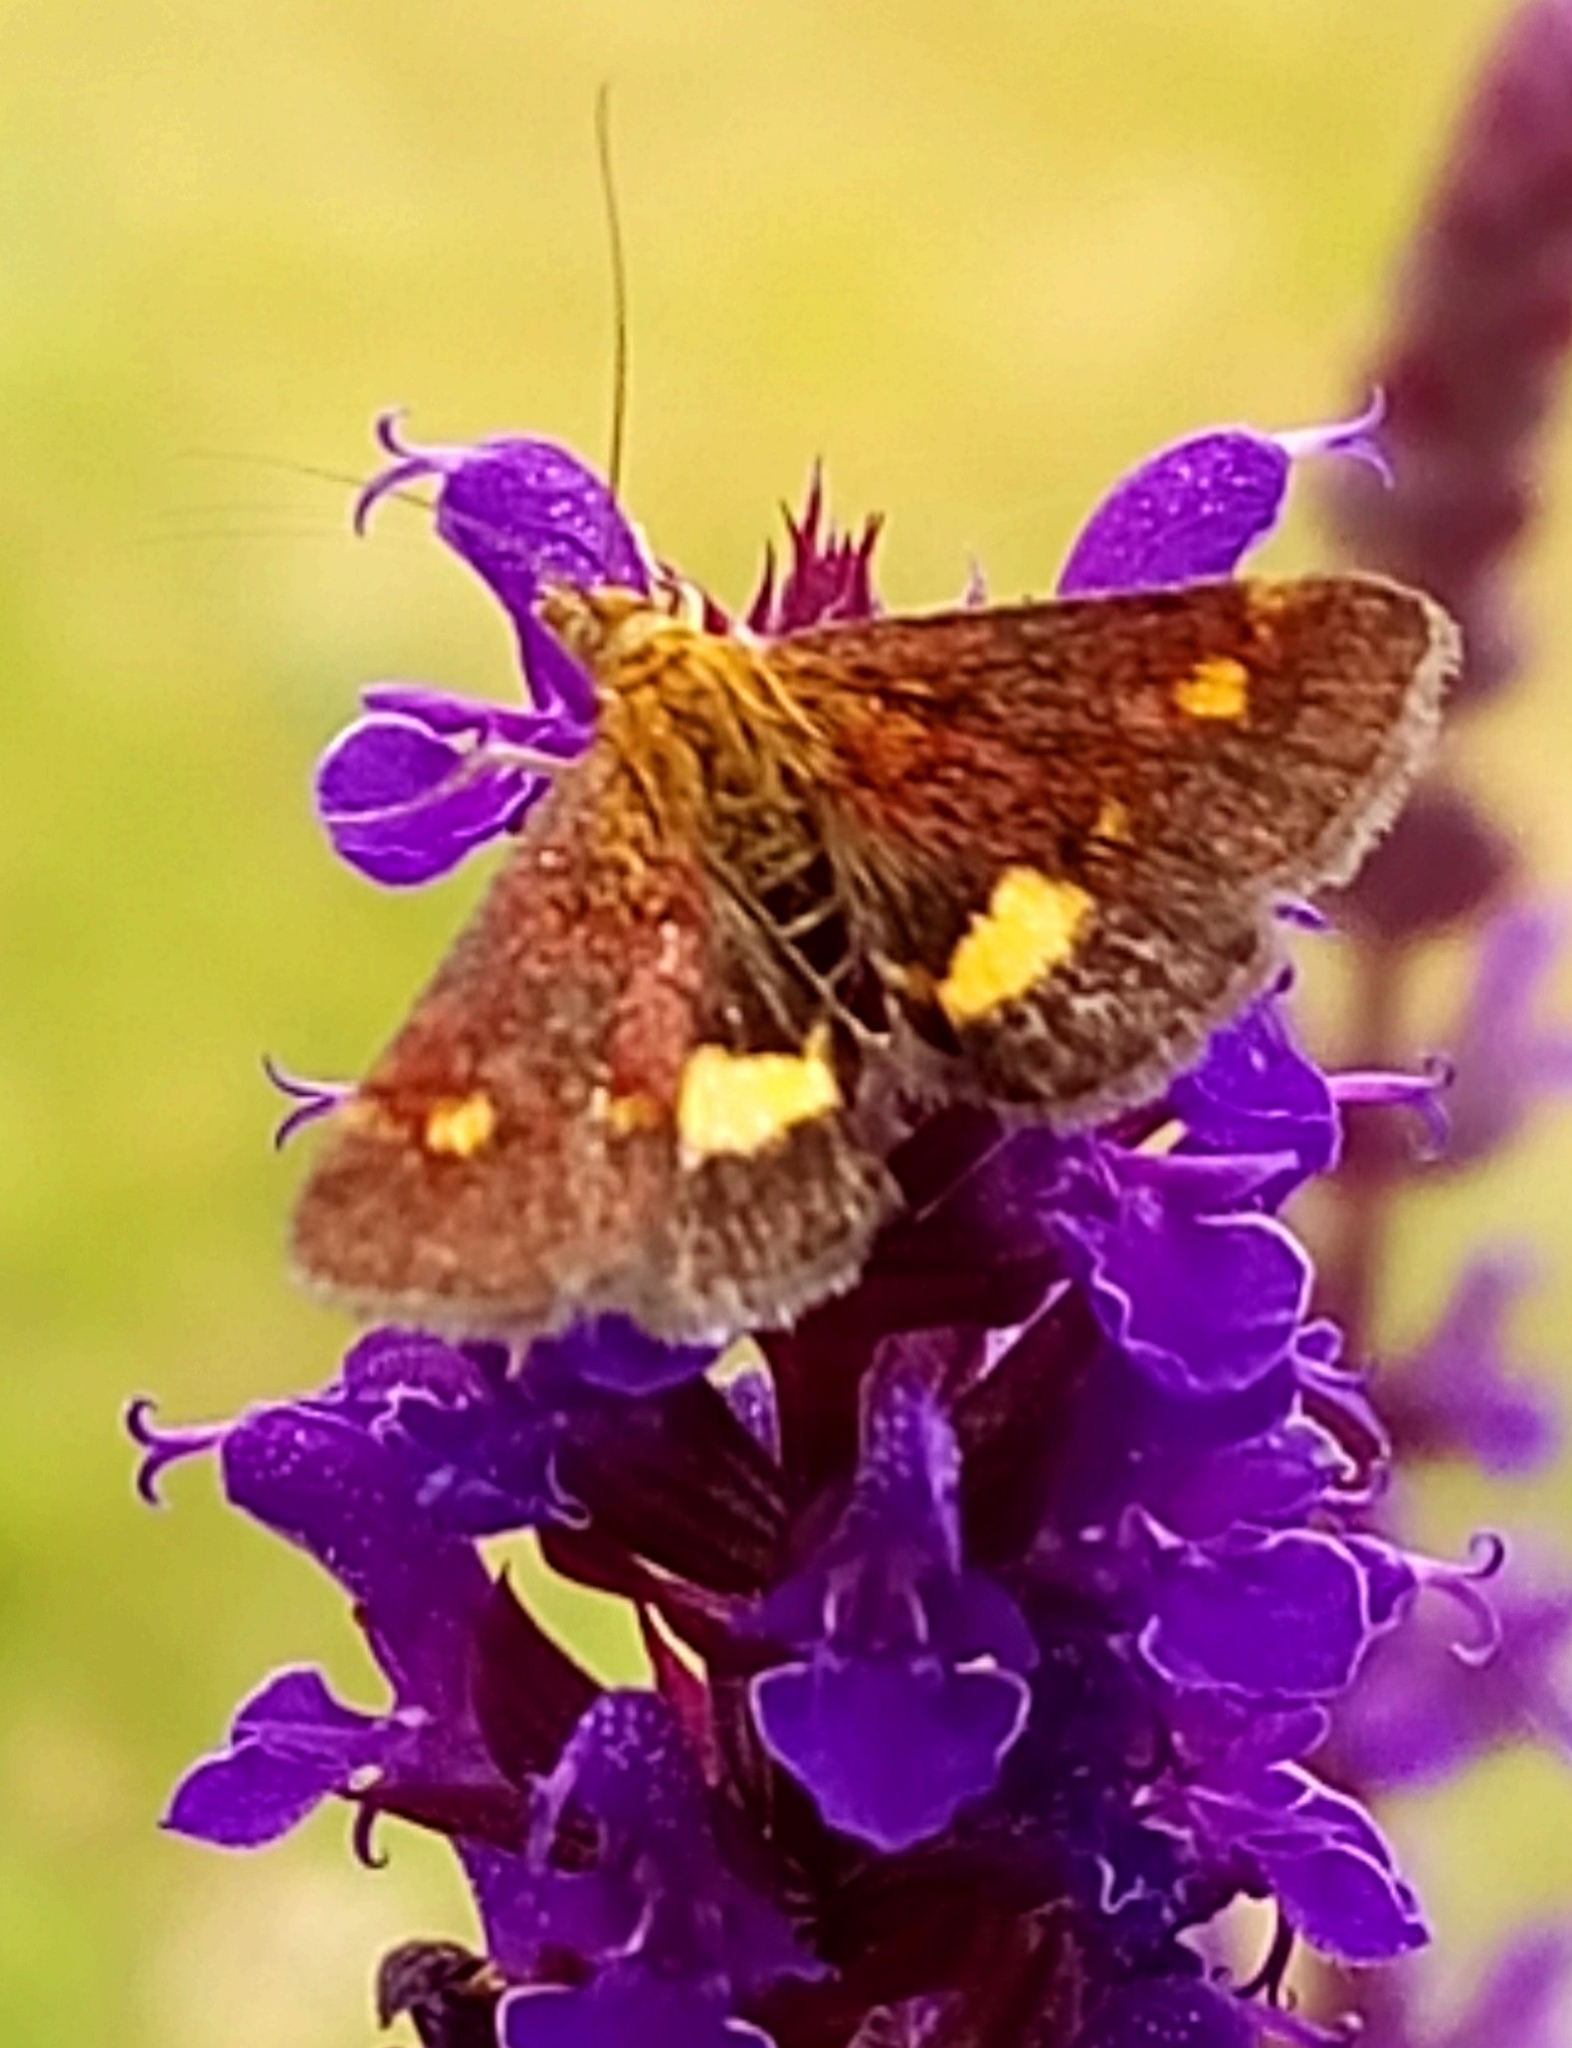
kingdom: Animalia
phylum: Arthropoda
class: Insecta
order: Lepidoptera
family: Crambidae
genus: Pyrausta
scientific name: Pyrausta aurata
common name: Small purple & gold
